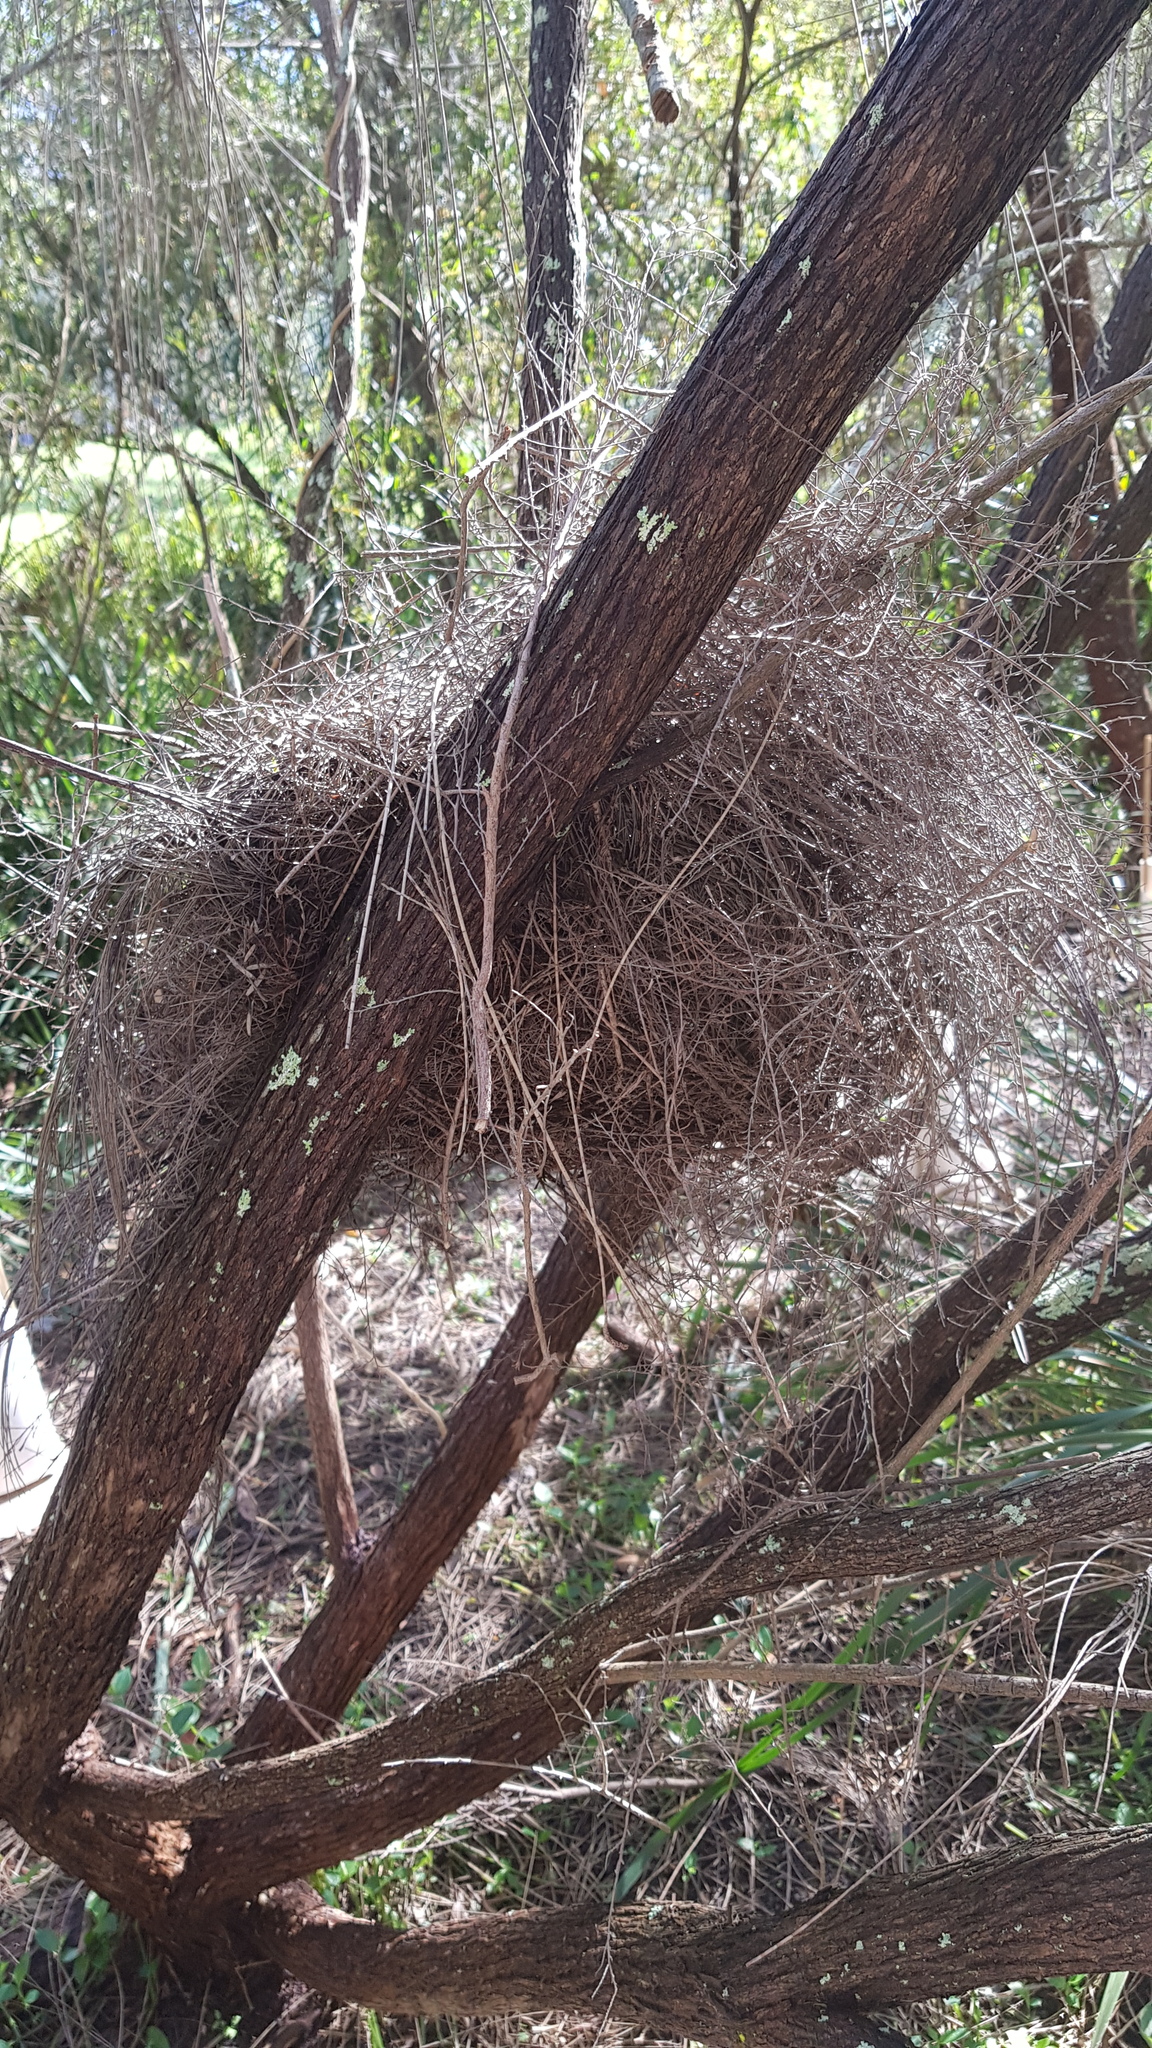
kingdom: Animalia
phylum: Chordata
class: Mammalia
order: Diprotodontia
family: Pseudocheiridae
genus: Pseudocheirus
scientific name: Pseudocheirus peregrinus
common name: Common ringtail possum
